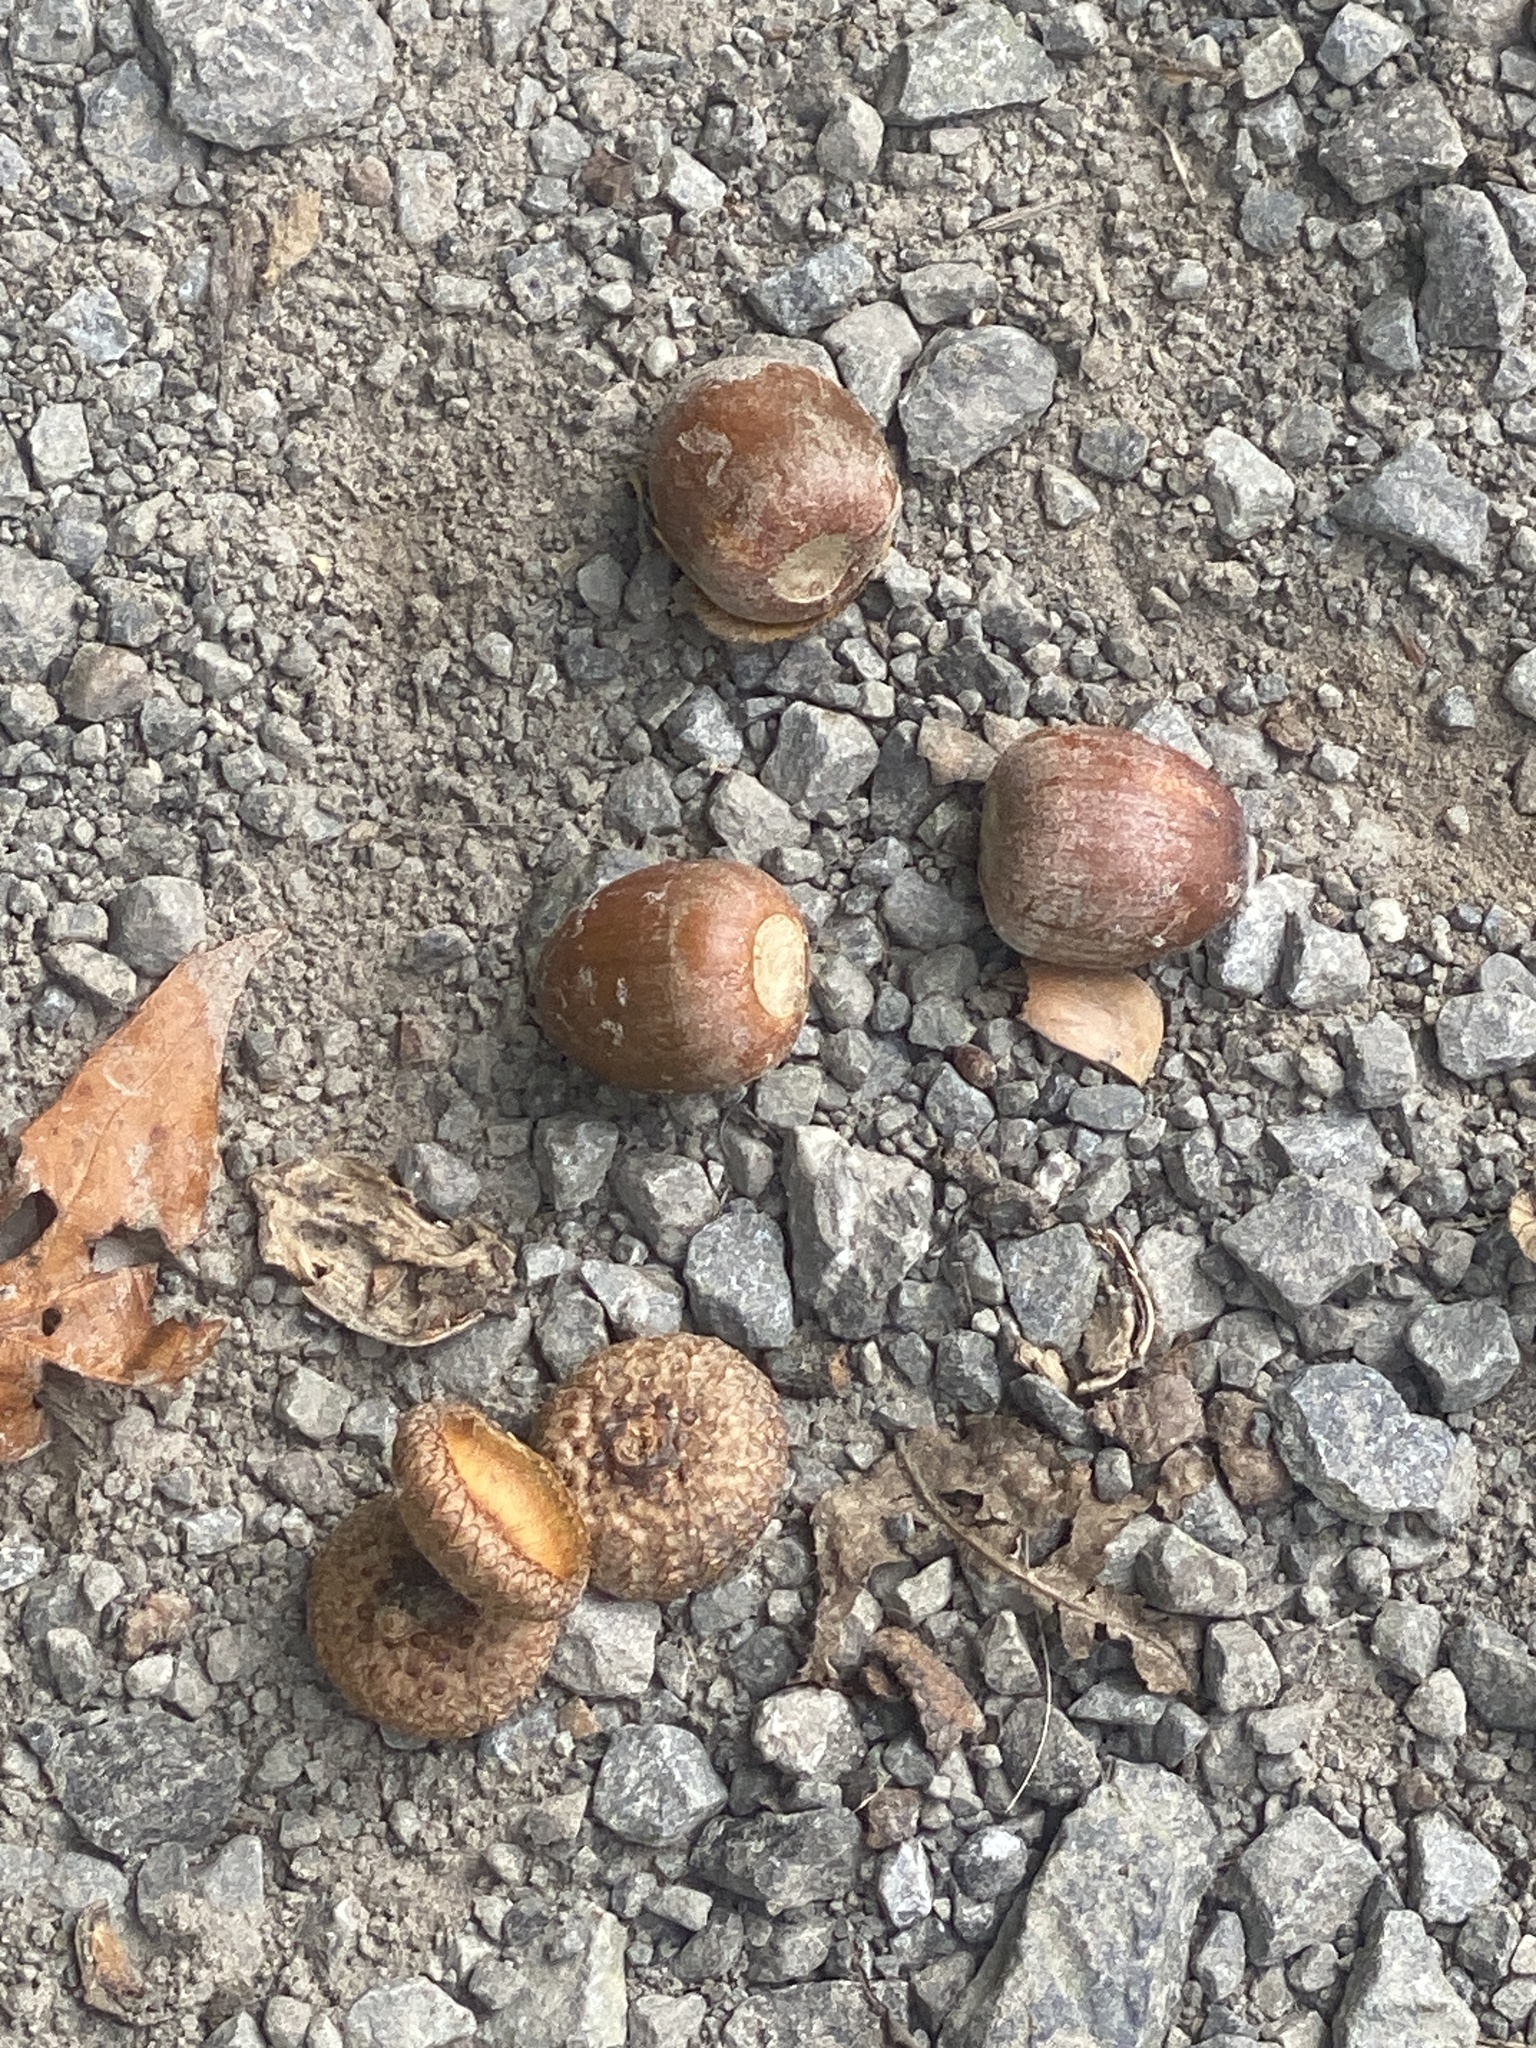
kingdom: Plantae
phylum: Tracheophyta
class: Magnoliopsida
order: Fagales
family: Fagaceae
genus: Quercus
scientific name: Quercus rubra
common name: Red oak
